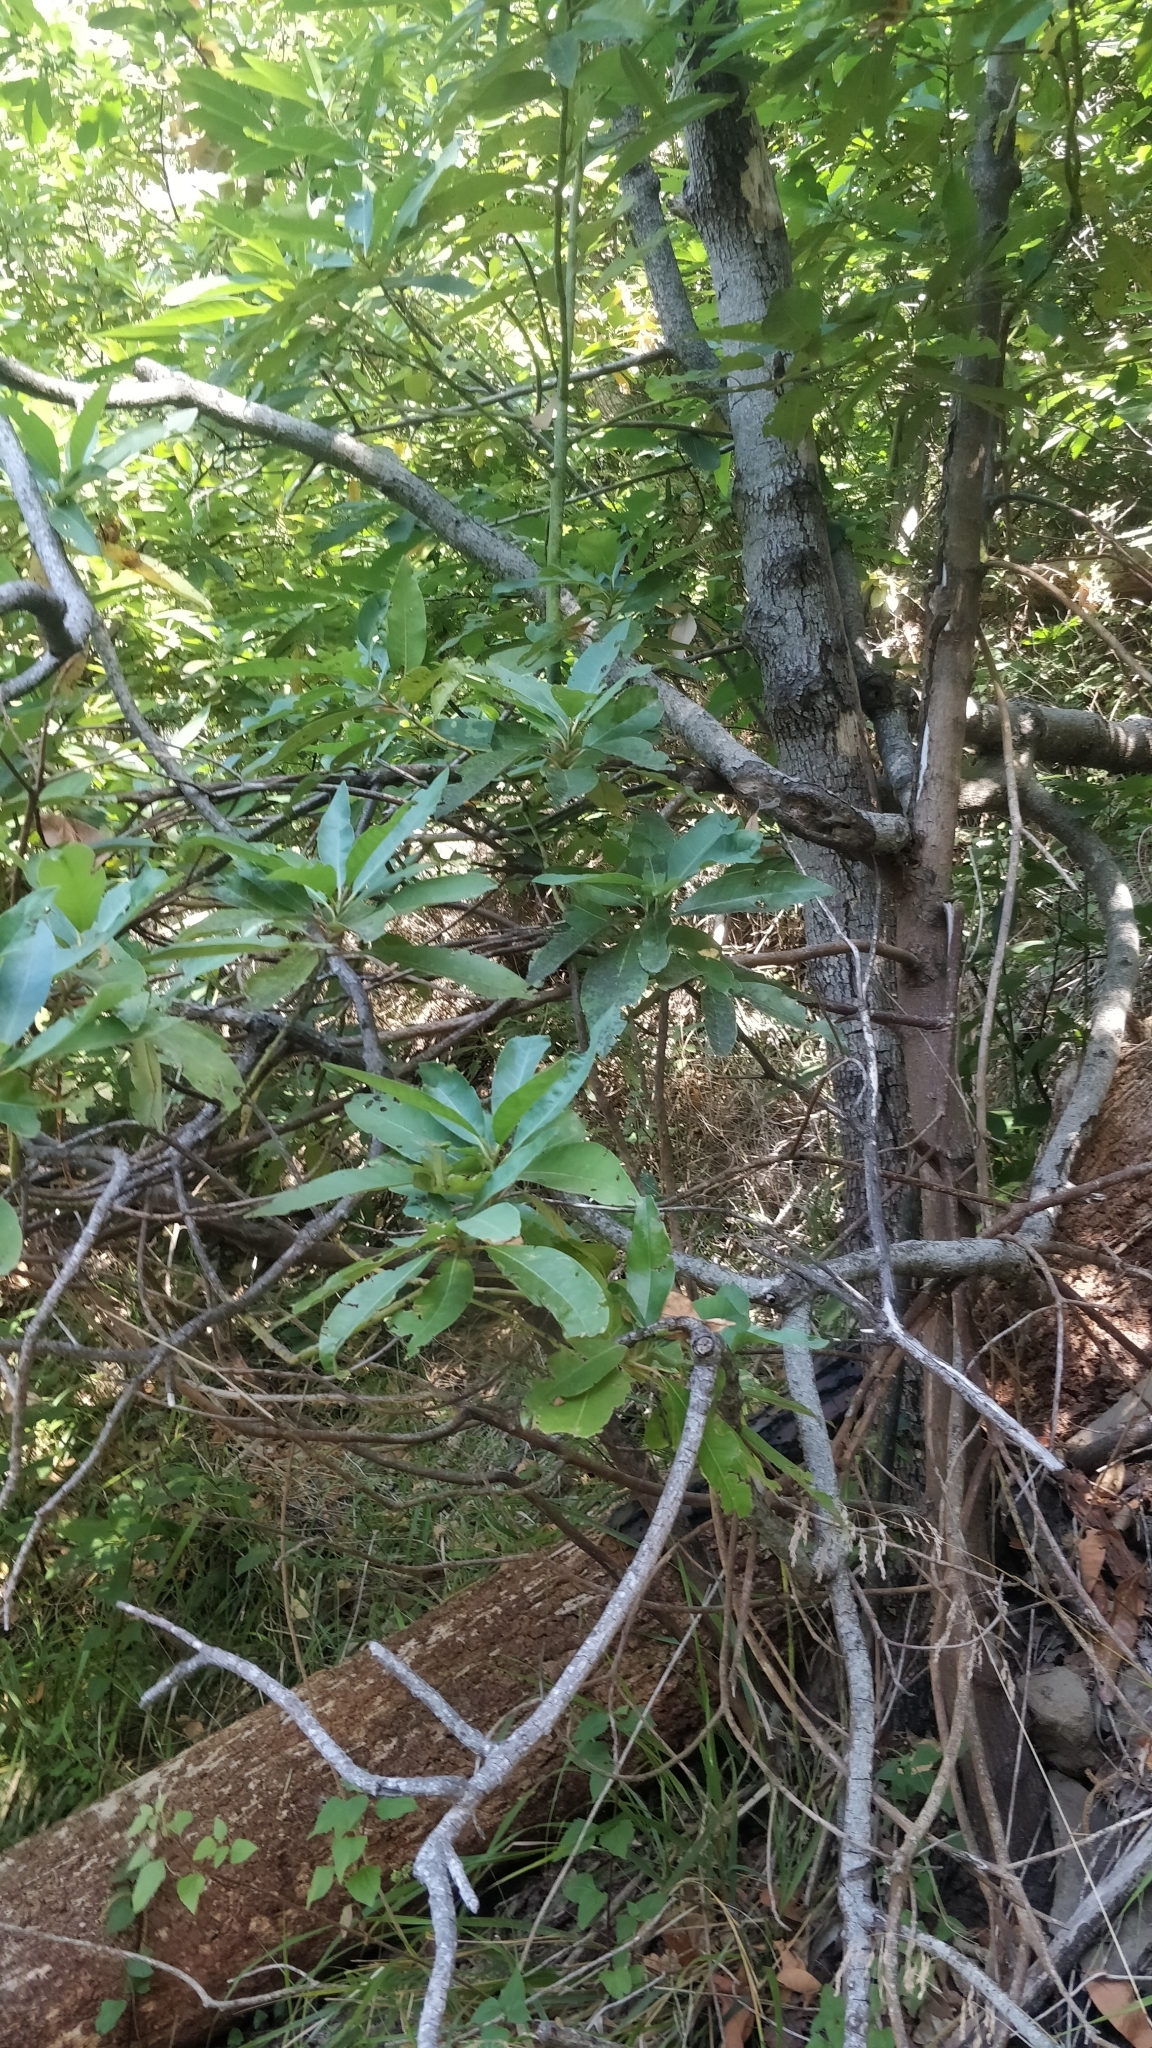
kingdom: Plantae
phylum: Tracheophyta
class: Magnoliopsida
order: Laurales
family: Lauraceae
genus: Persea
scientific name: Persea indica
